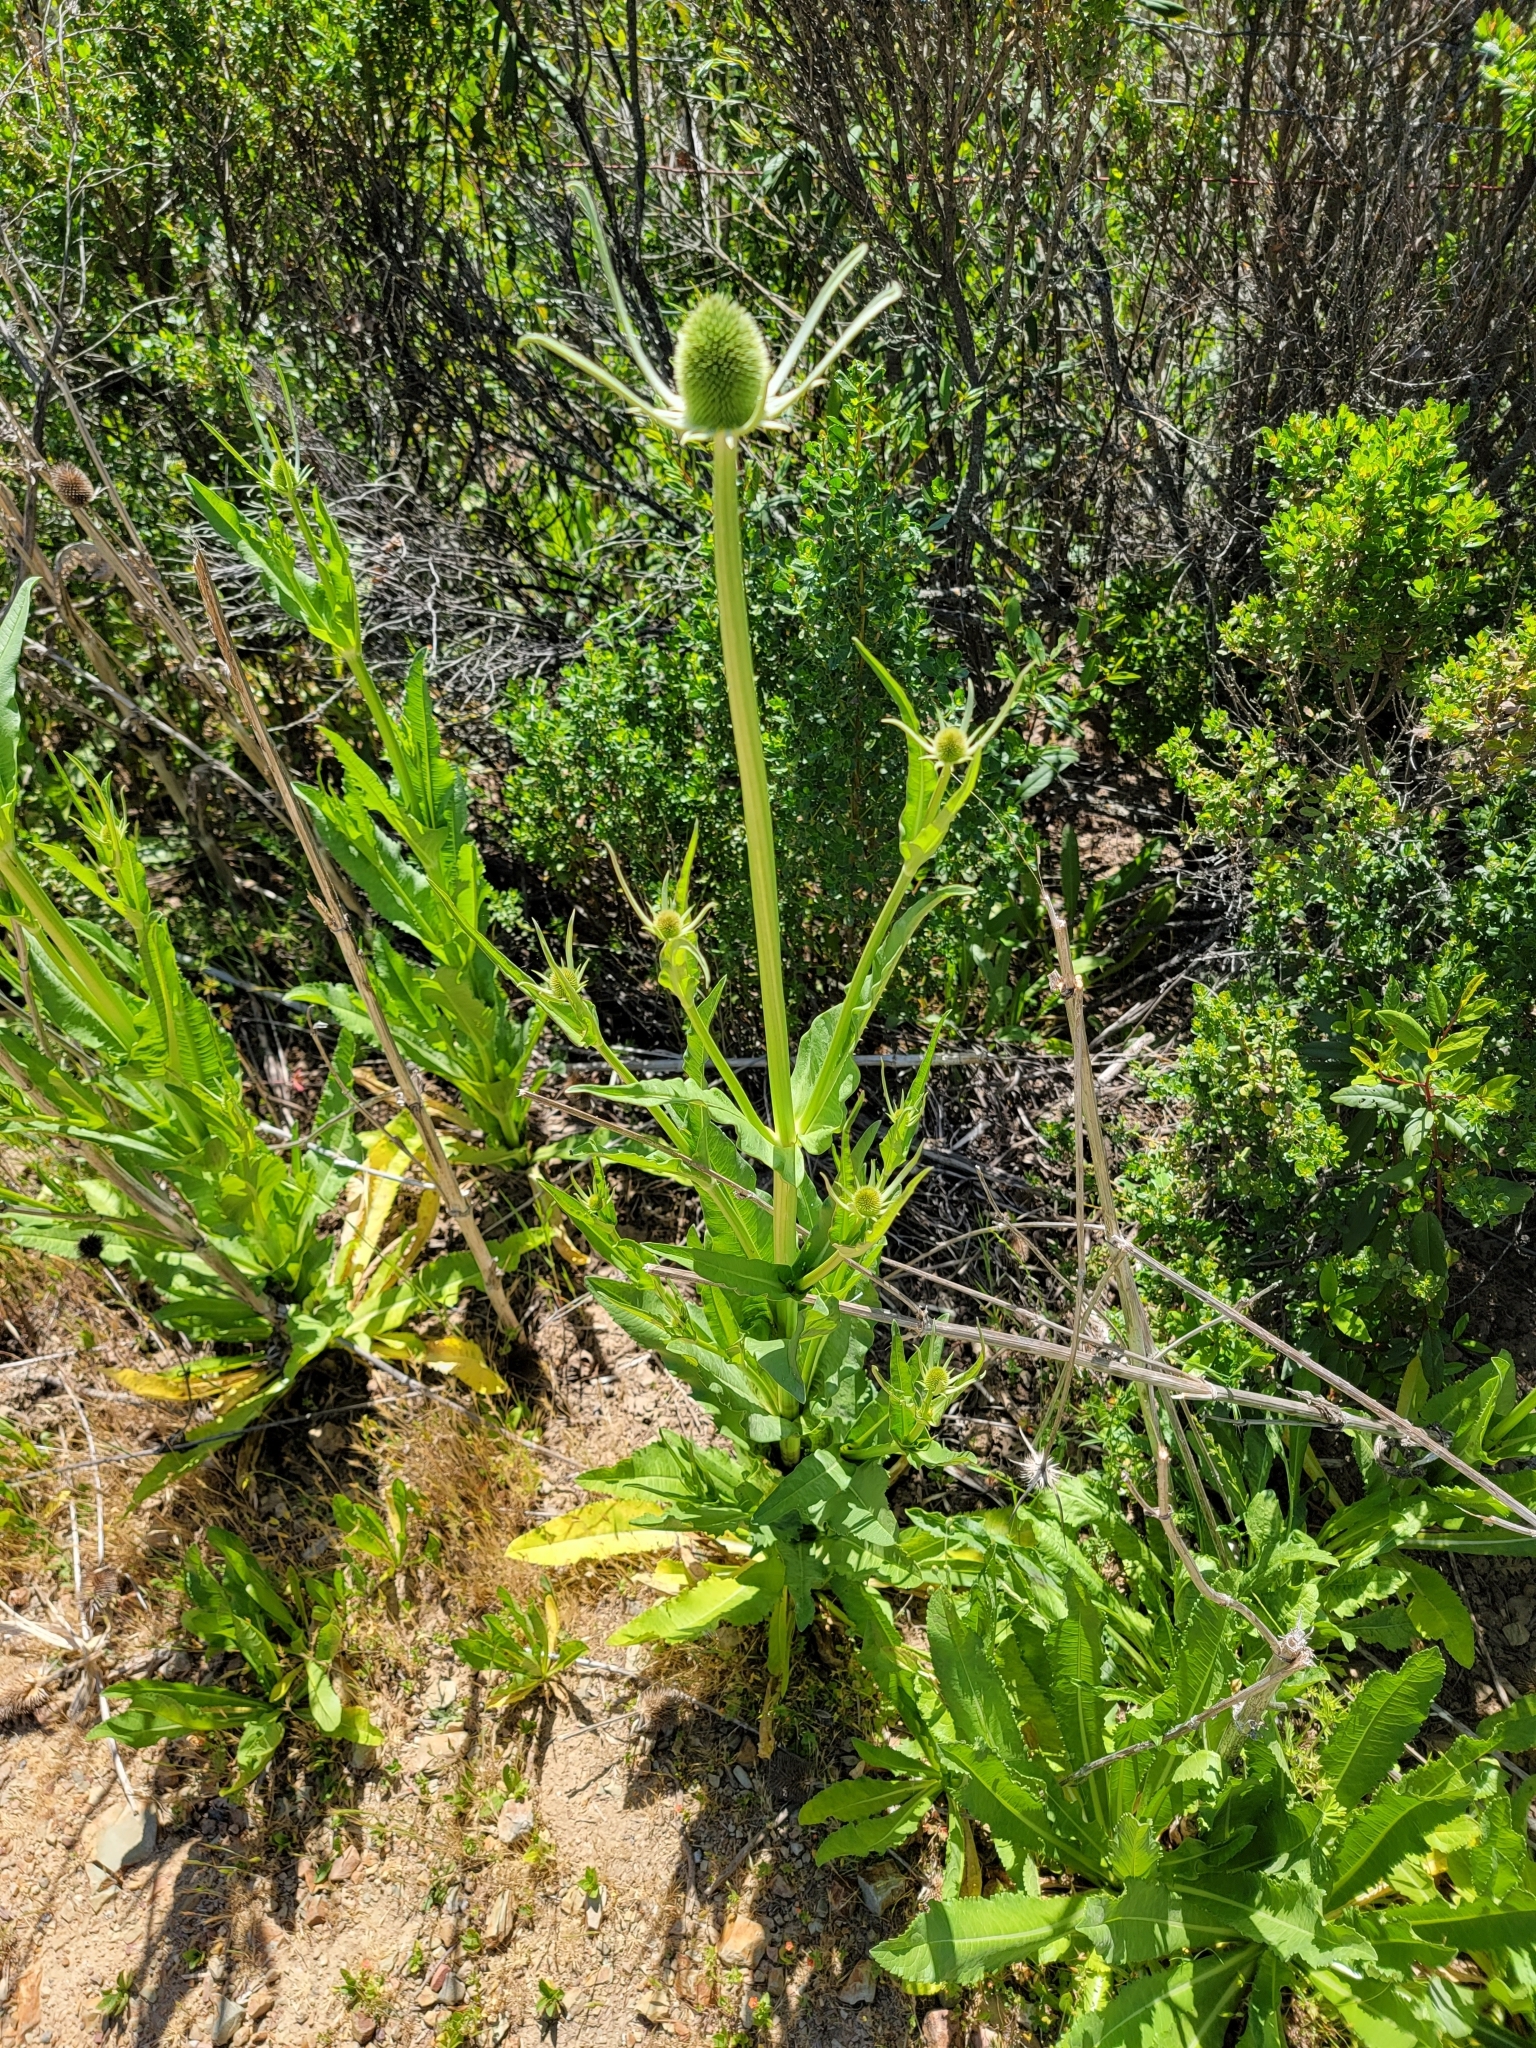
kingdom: Plantae
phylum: Tracheophyta
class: Magnoliopsida
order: Dipsacales
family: Caprifoliaceae
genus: Dipsacus
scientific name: Dipsacus sativus
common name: Fuller's teasel
